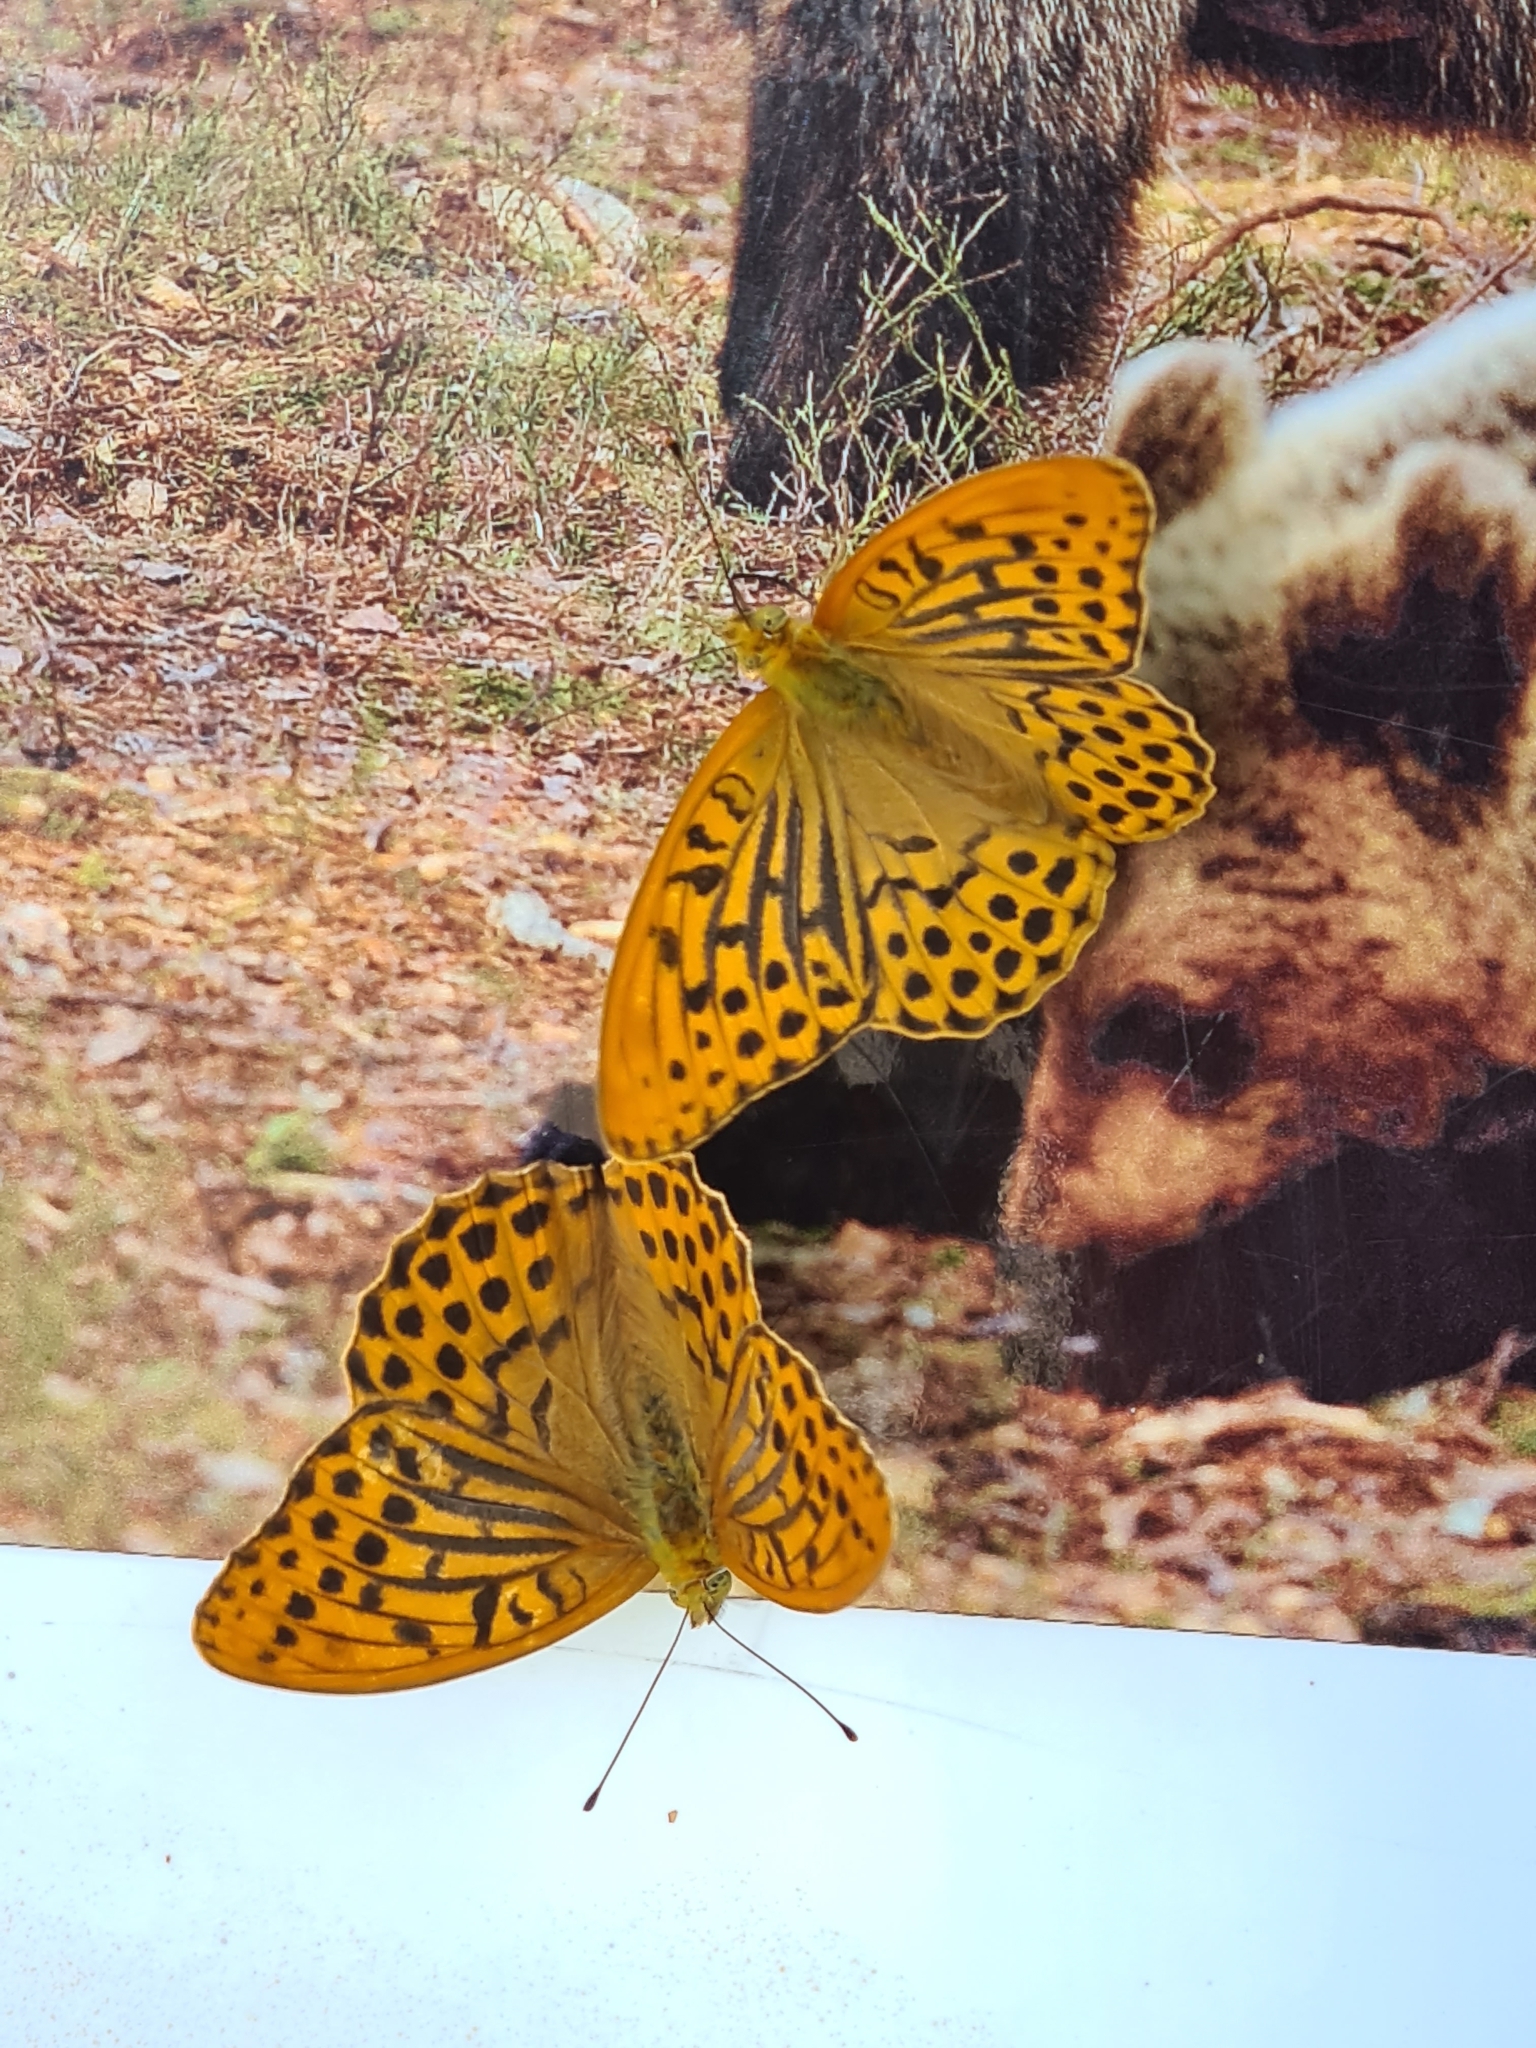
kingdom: Animalia
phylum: Arthropoda
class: Insecta
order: Lepidoptera
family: Nymphalidae
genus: Argynnis
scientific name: Argynnis paphia
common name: Silver-washed fritillary
